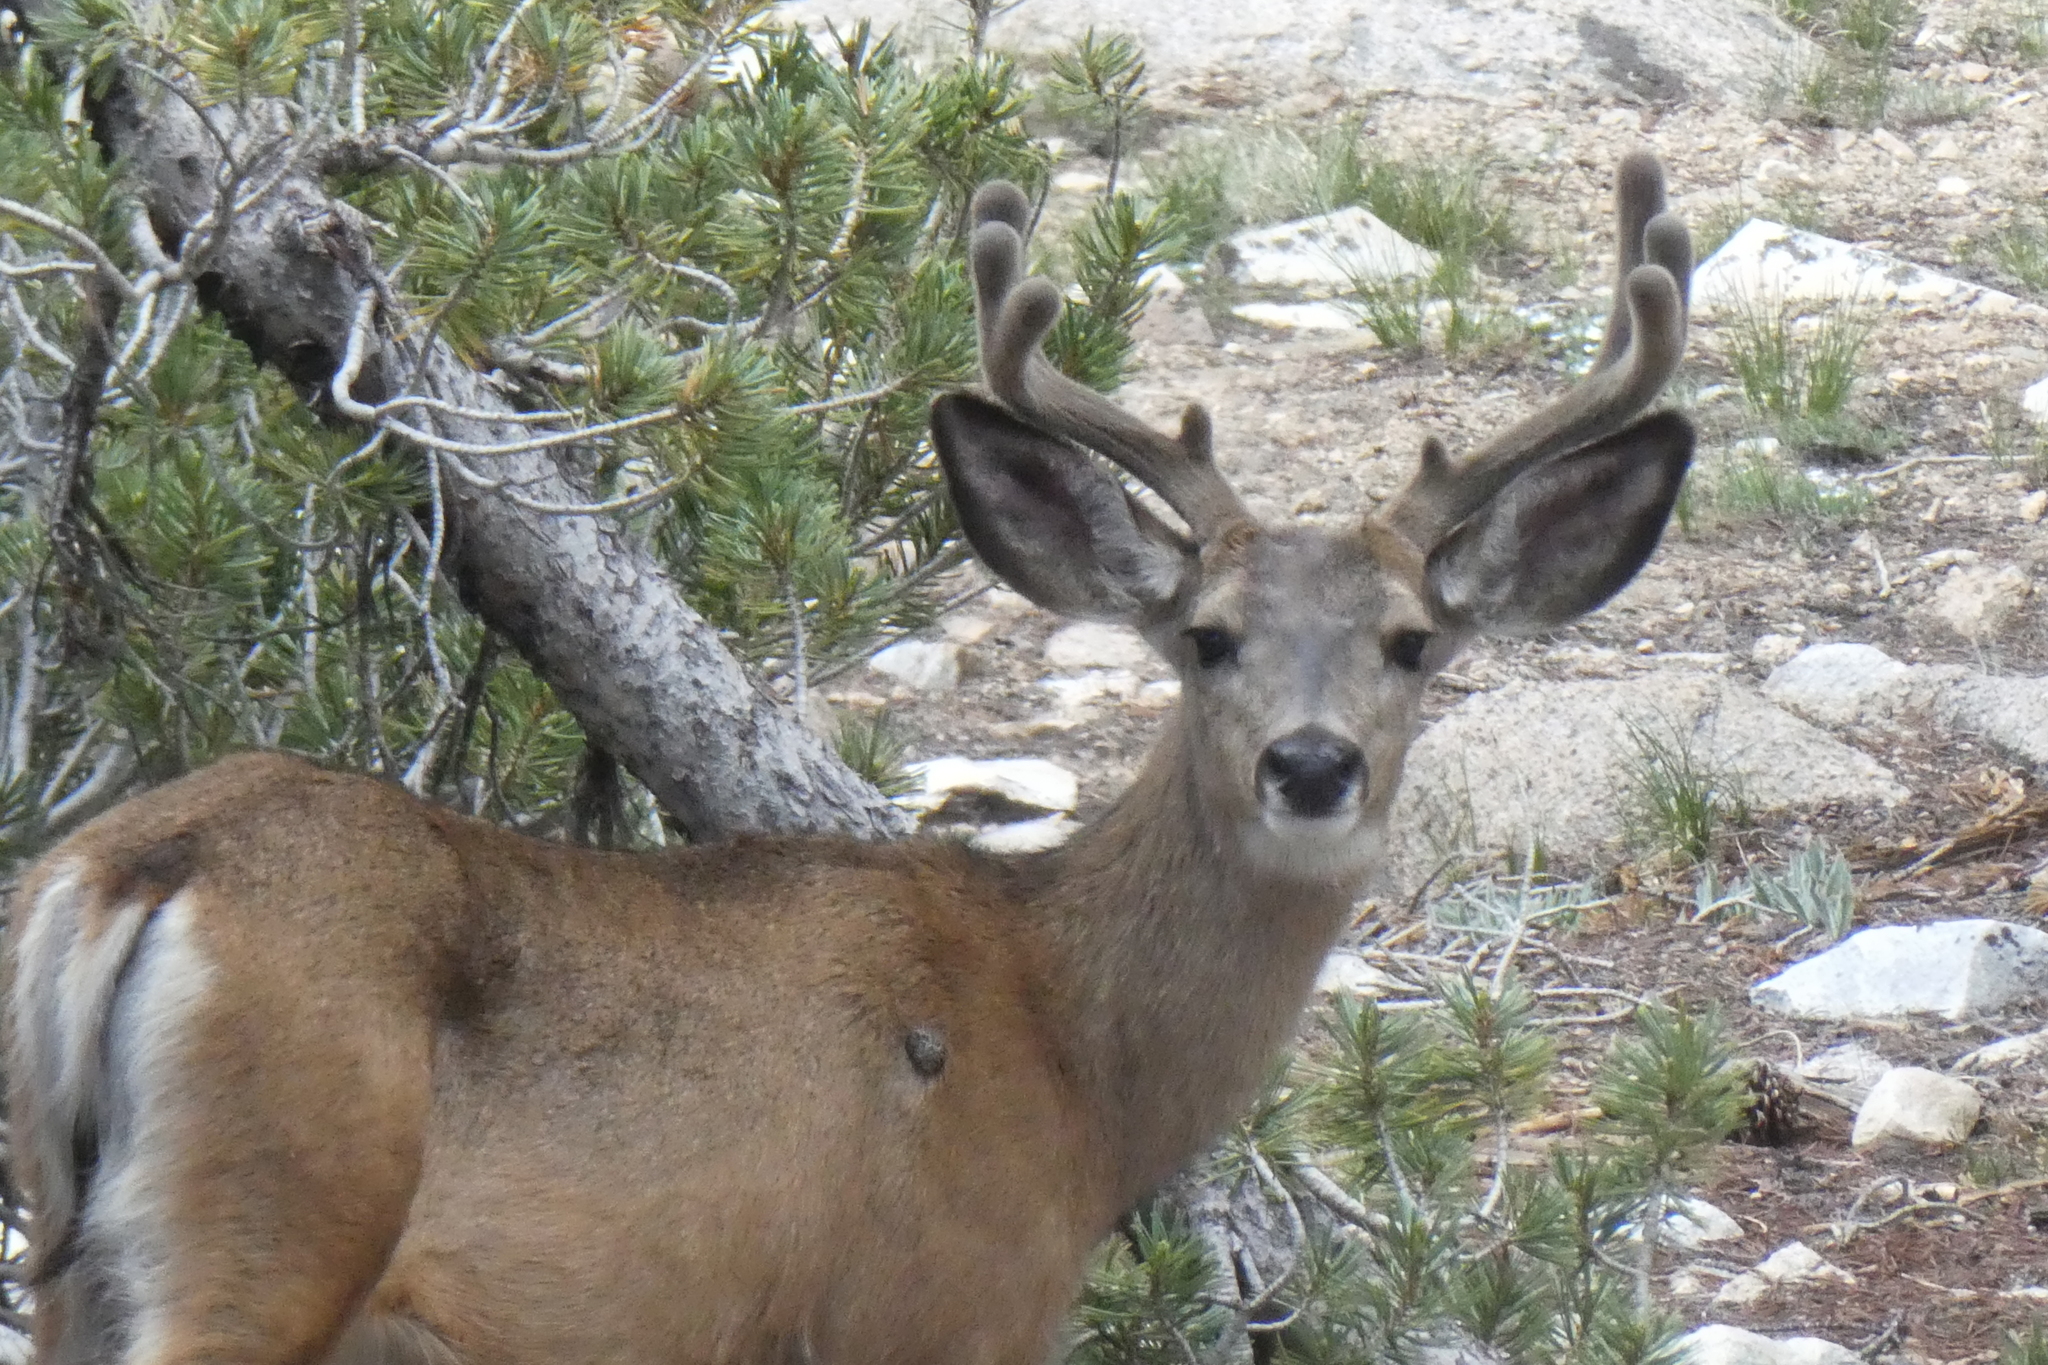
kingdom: Animalia
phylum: Chordata
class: Mammalia
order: Artiodactyla
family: Cervidae
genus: Odocoileus
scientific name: Odocoileus hemionus
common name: Mule deer
